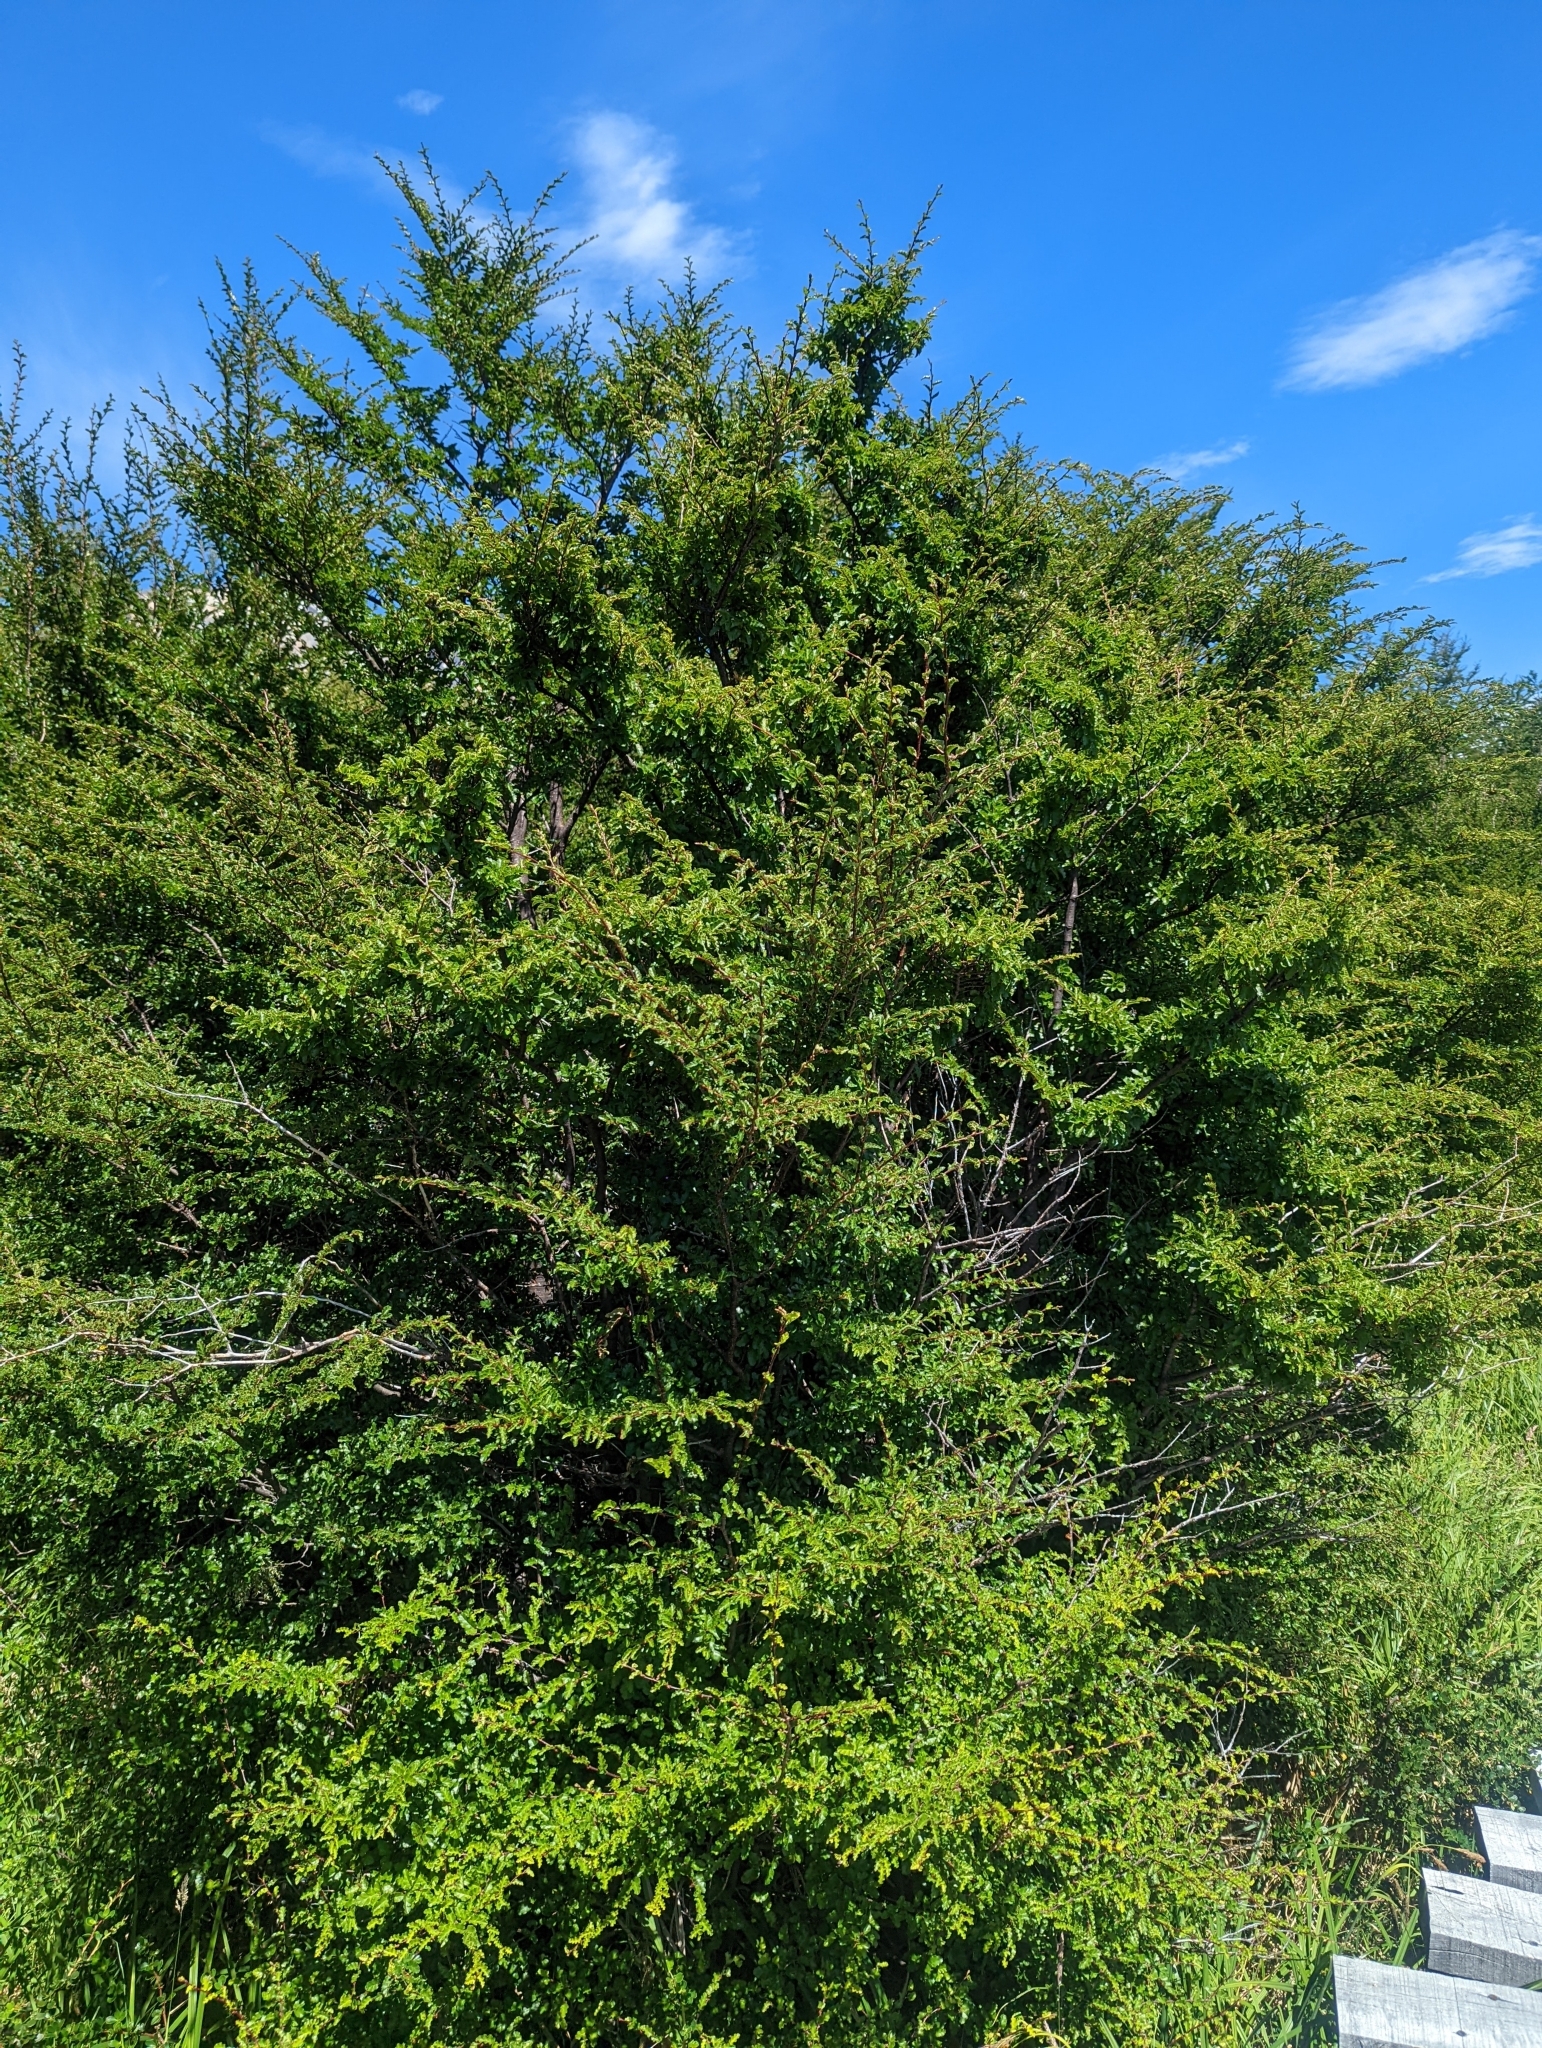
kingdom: Plantae
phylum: Tracheophyta
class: Magnoliopsida
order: Fagales
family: Nothofagaceae
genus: Nothofagus
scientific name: Nothofagus antarctica
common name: Antarctic beech
